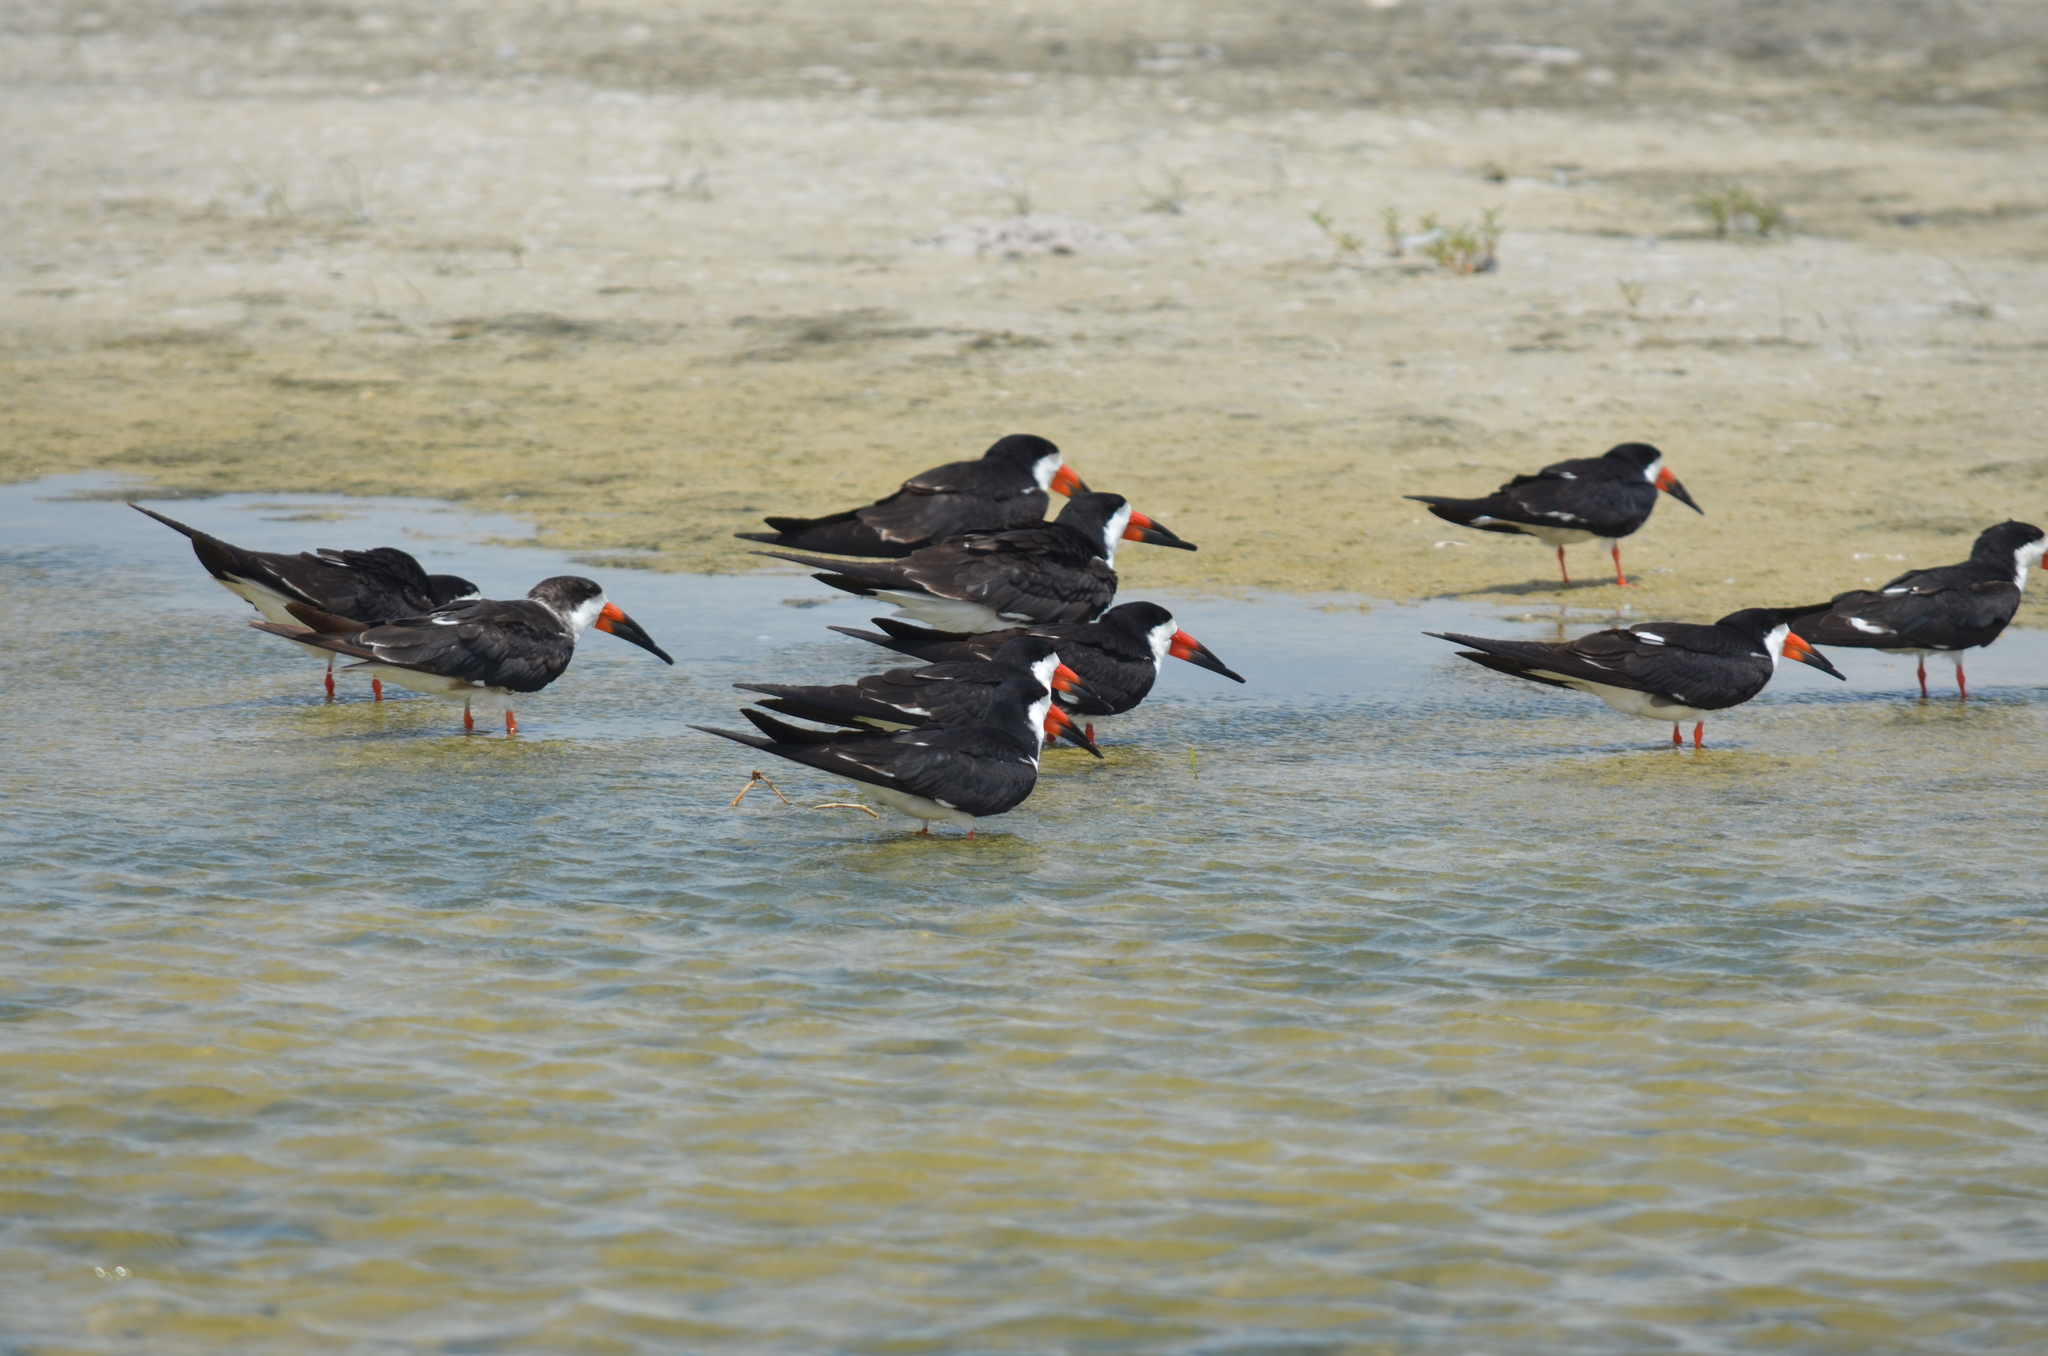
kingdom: Animalia
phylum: Chordata
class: Aves
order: Charadriiformes
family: Laridae
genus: Rynchops
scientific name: Rynchops niger
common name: Black skimmer
